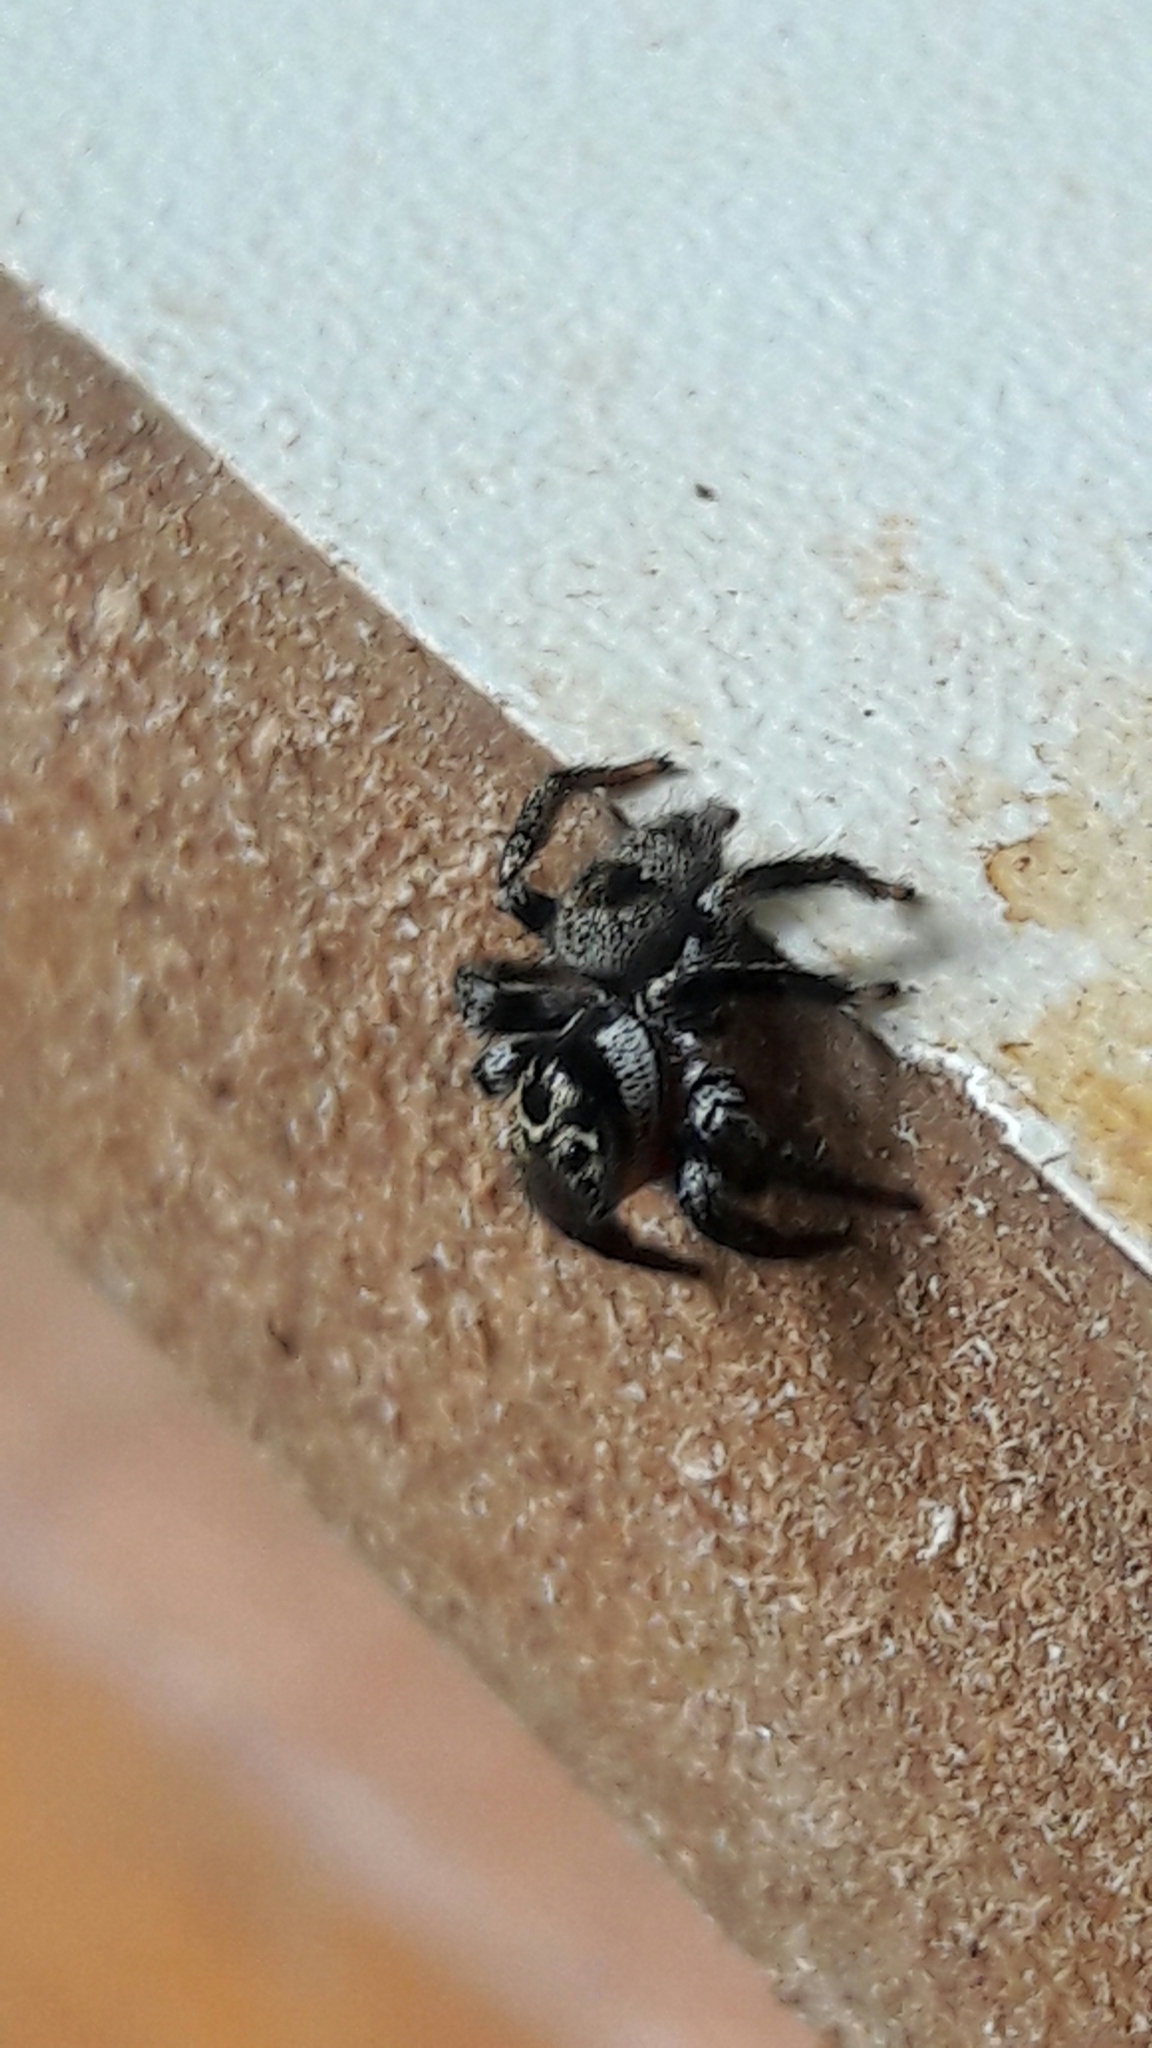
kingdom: Animalia
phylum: Arthropoda
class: Arachnida
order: Araneae
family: Salticidae
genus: Corythalia
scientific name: Corythalia conferta
